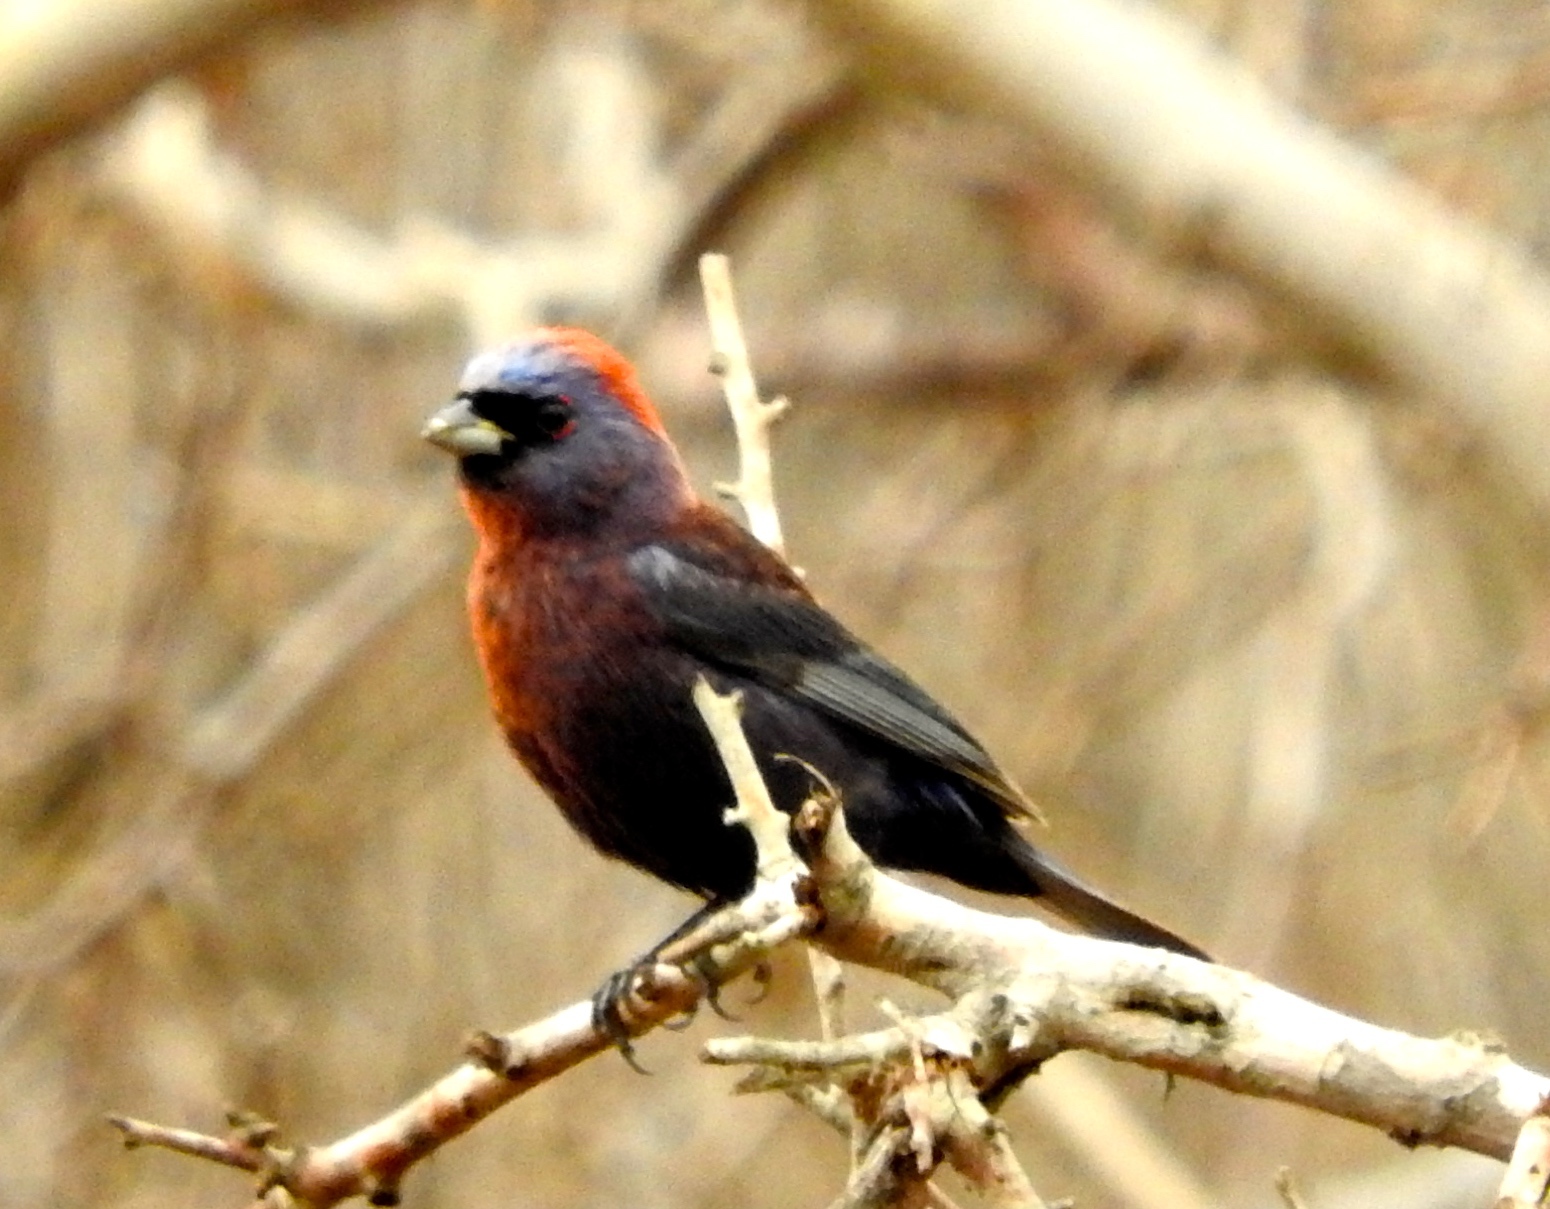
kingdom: Animalia
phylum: Chordata
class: Aves
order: Passeriformes
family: Cardinalidae
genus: Passerina
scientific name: Passerina versicolor
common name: Varied bunting
